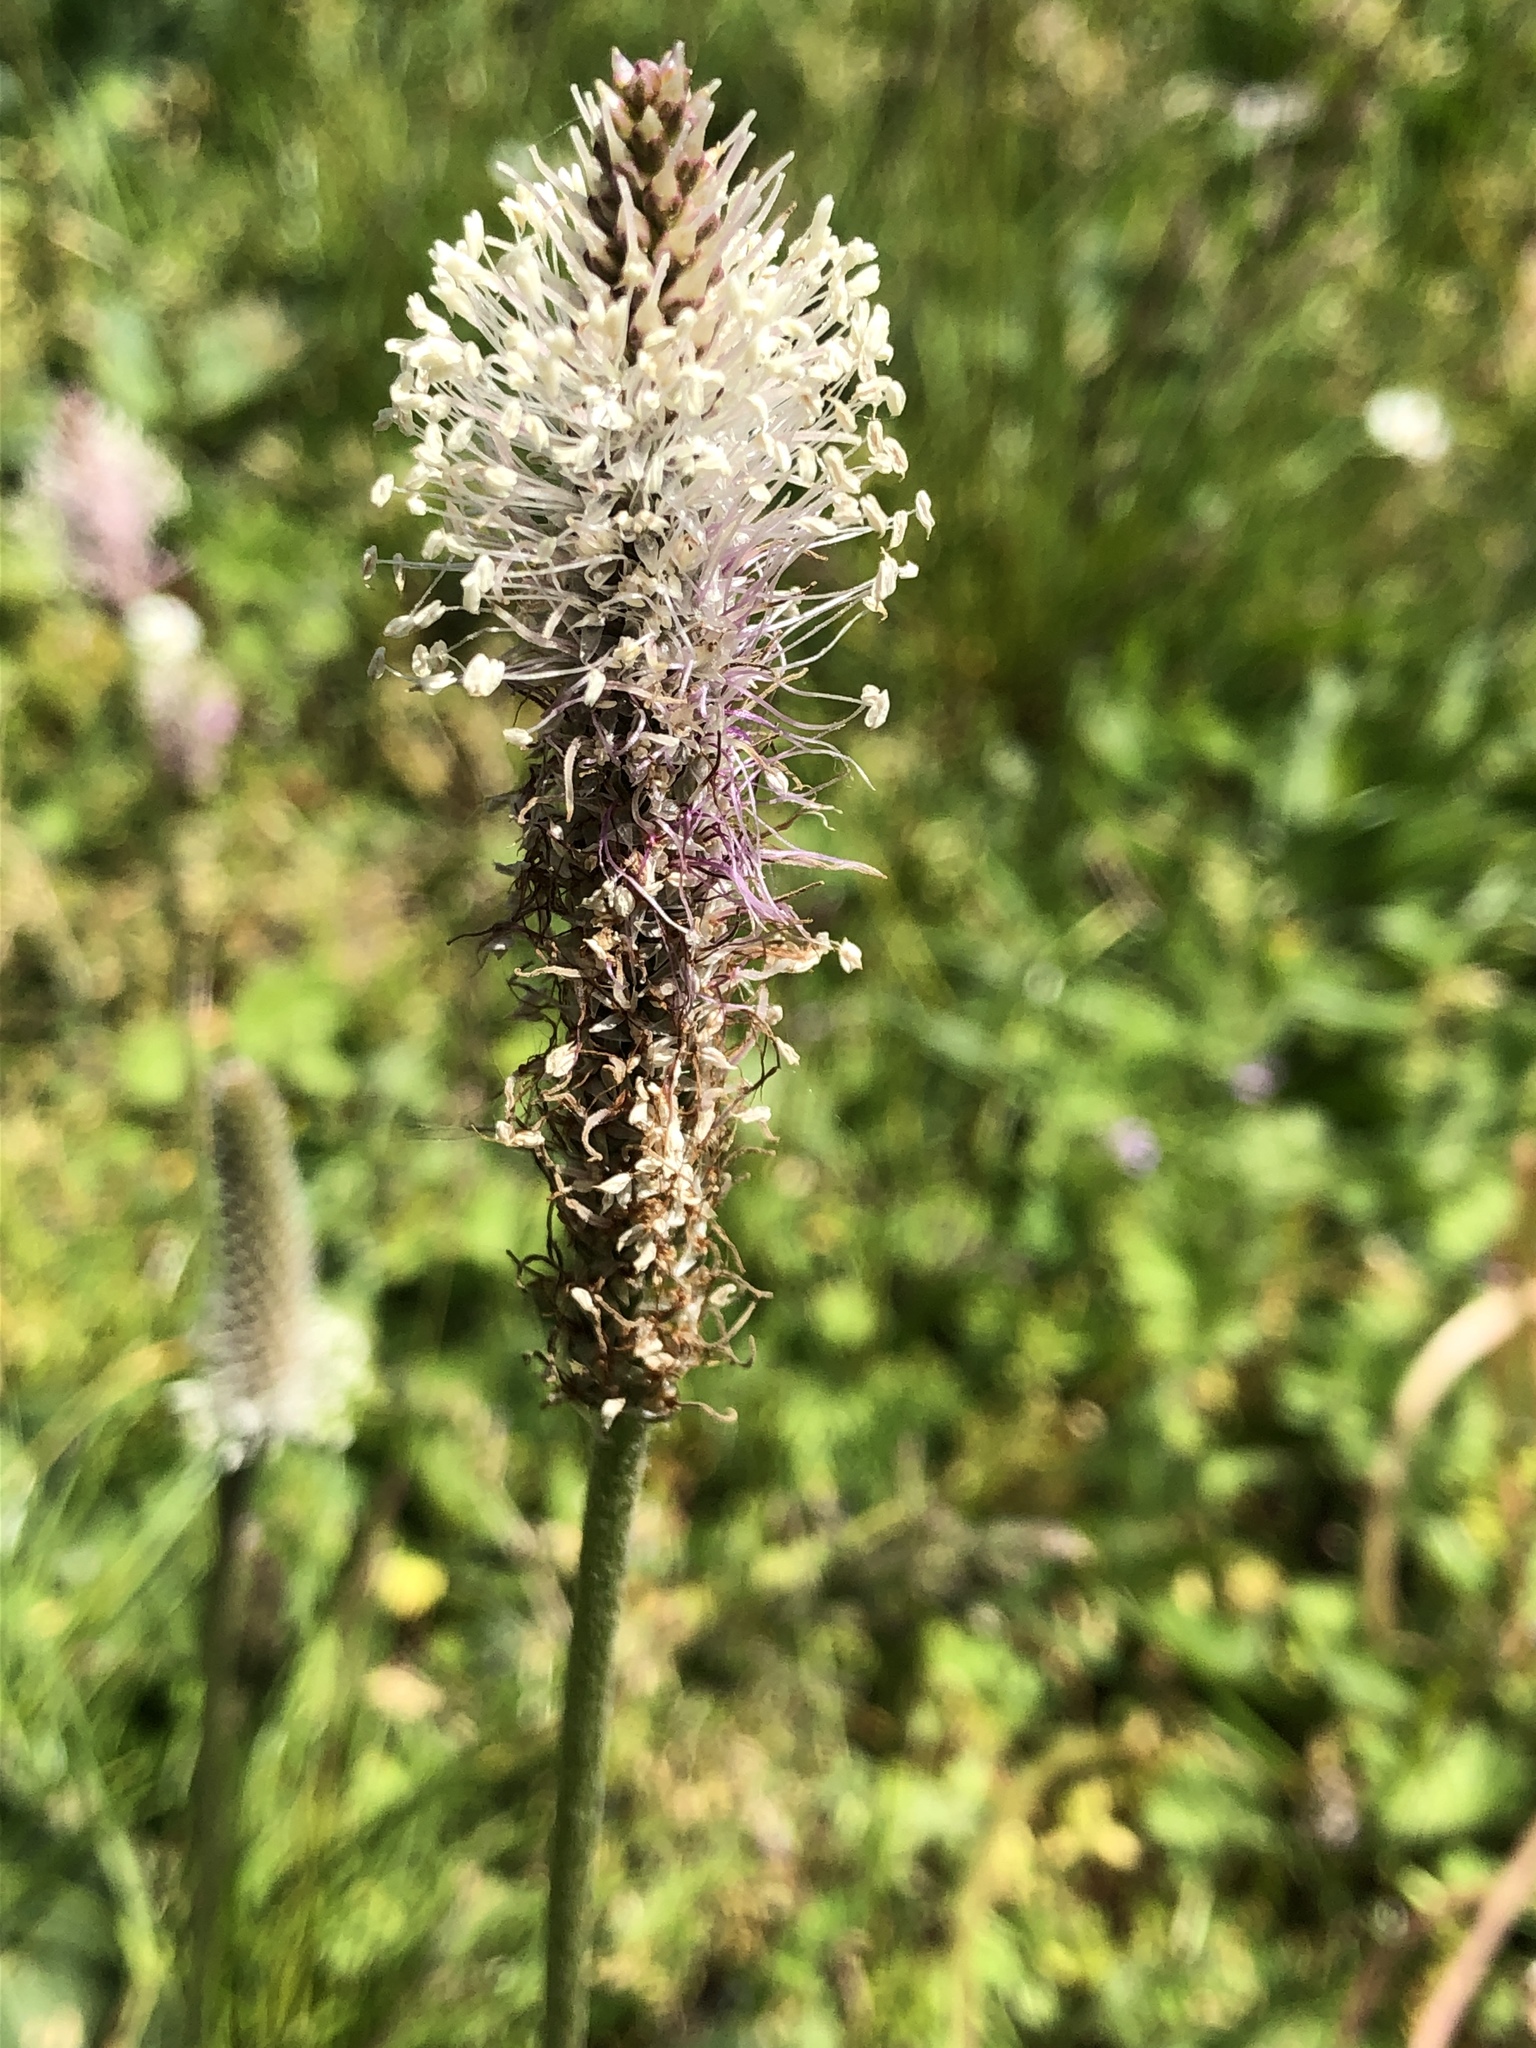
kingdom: Plantae
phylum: Tracheophyta
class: Magnoliopsida
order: Lamiales
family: Plantaginaceae
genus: Plantago
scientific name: Plantago media
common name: Hoary plantain
